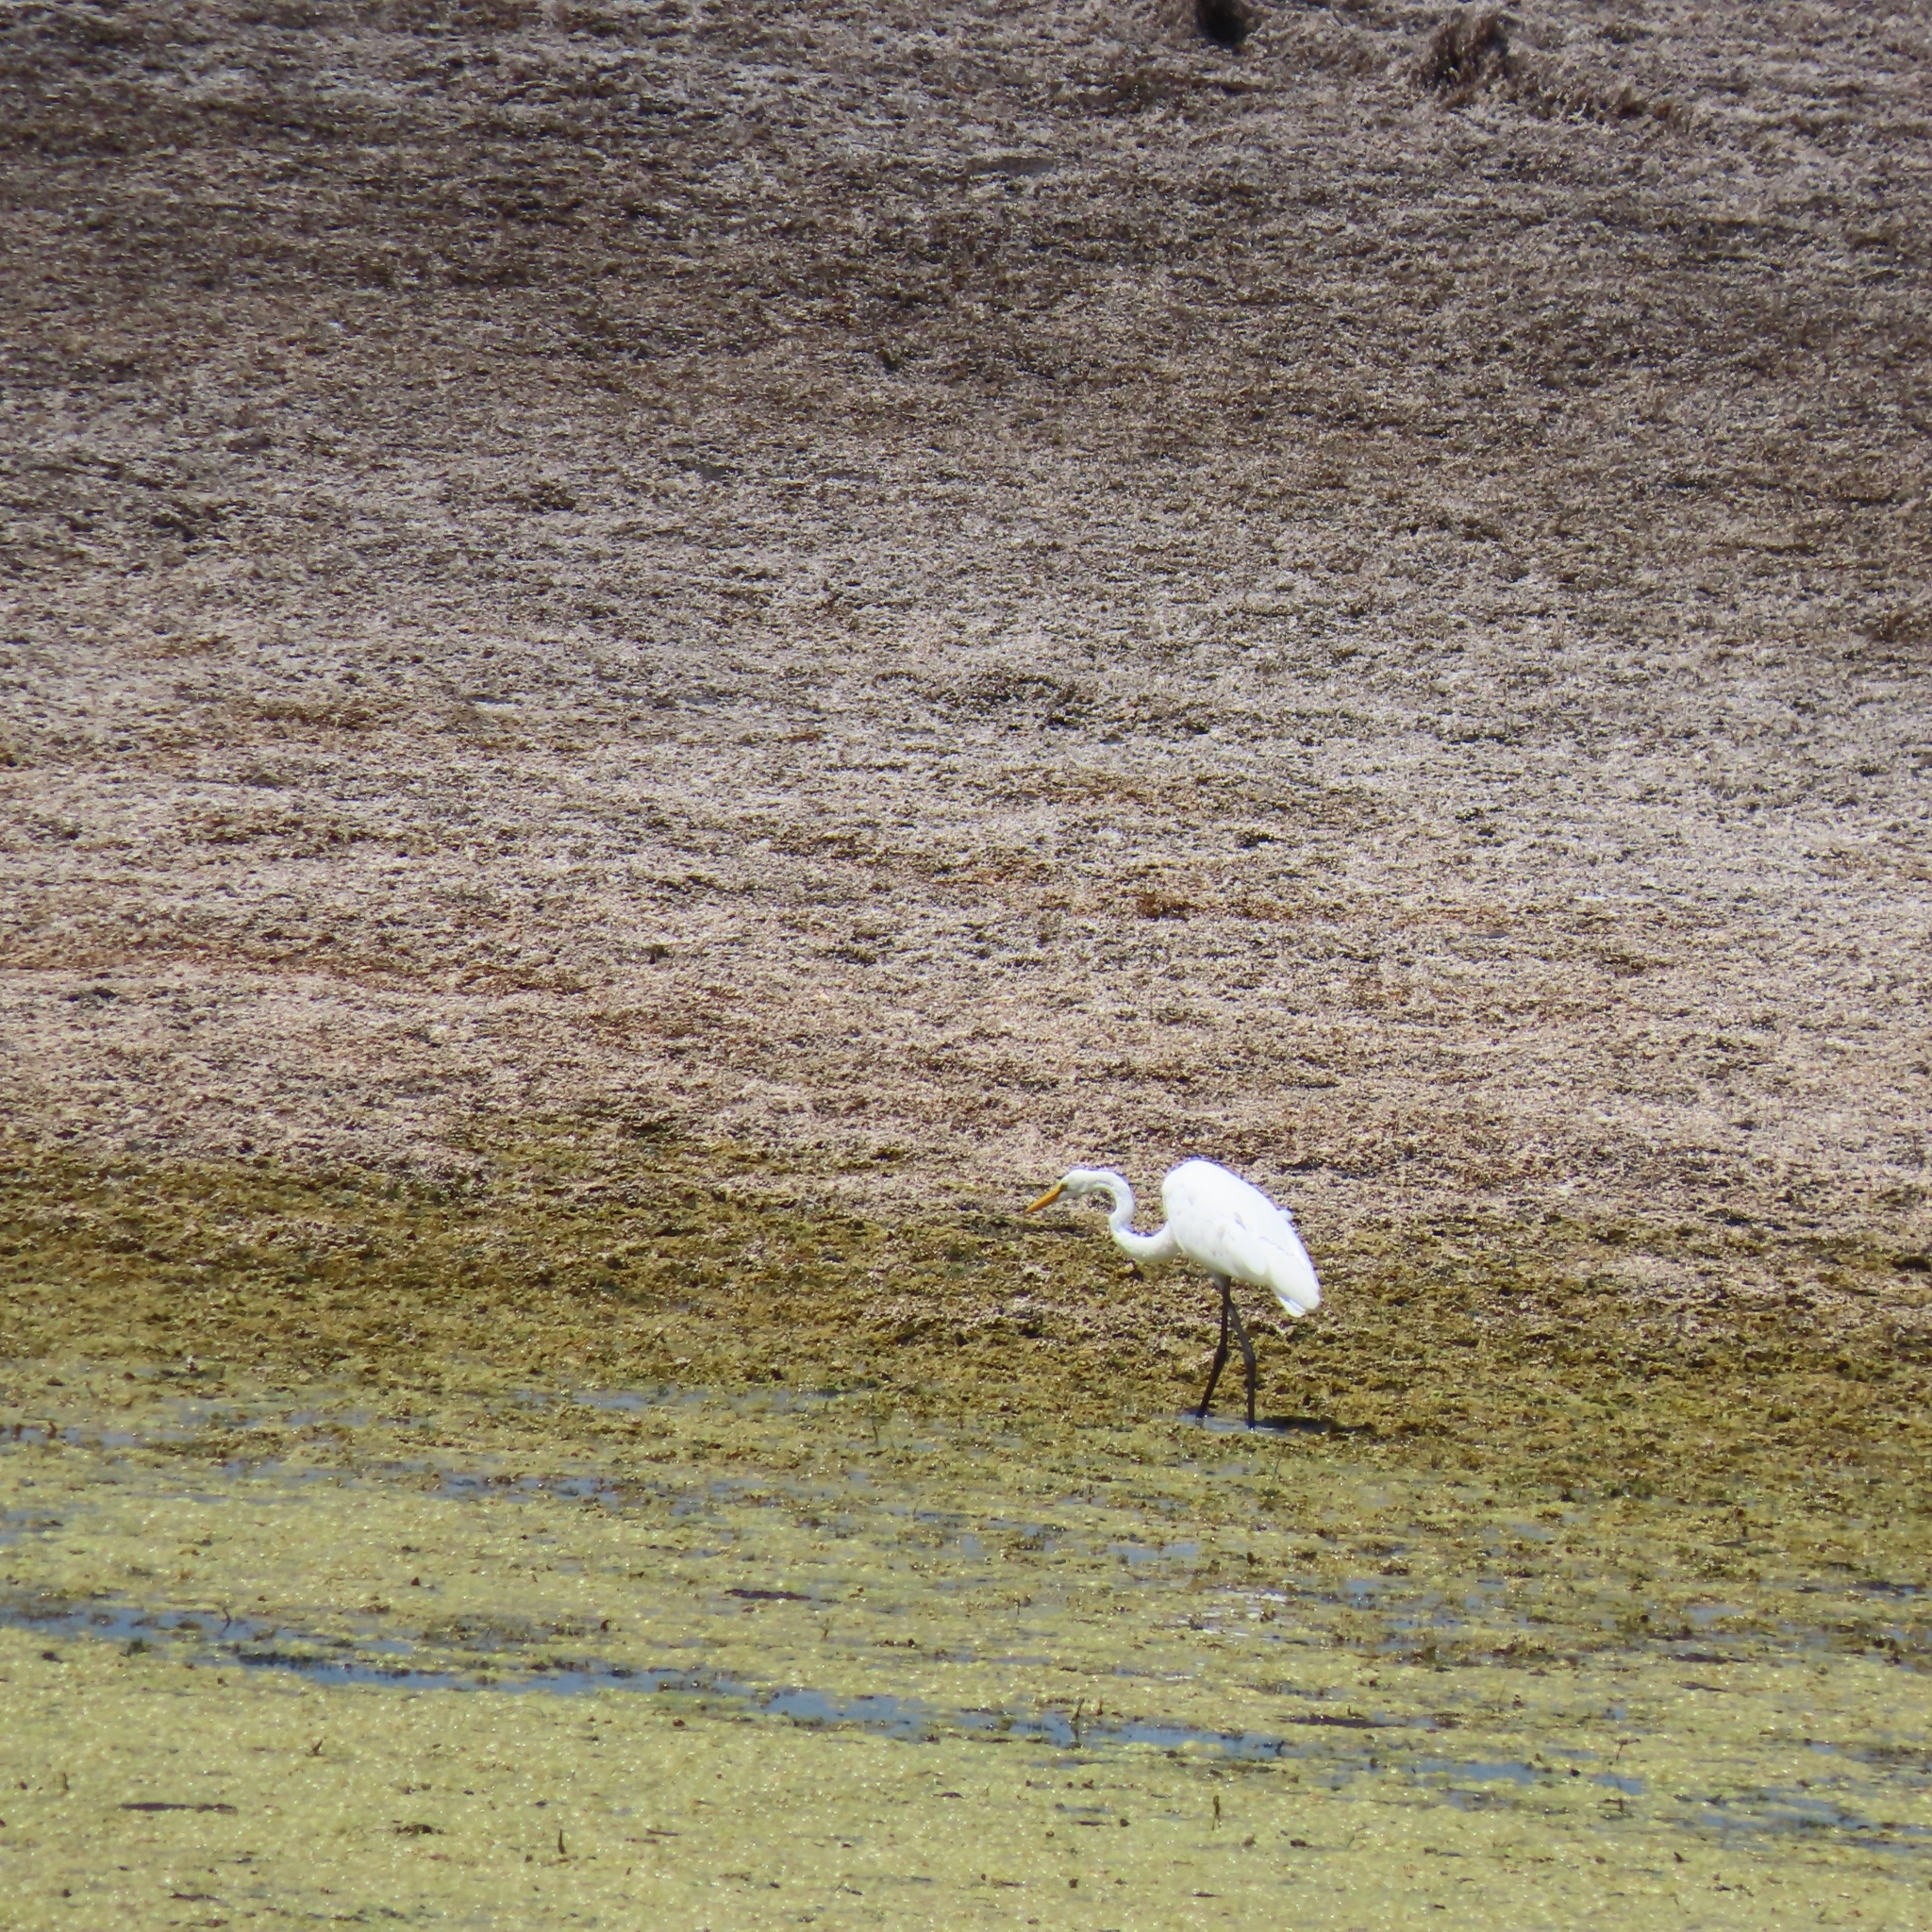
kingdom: Animalia
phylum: Chordata
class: Aves
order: Pelecaniformes
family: Ardeidae
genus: Ardea
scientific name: Ardea alba
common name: Great egret
